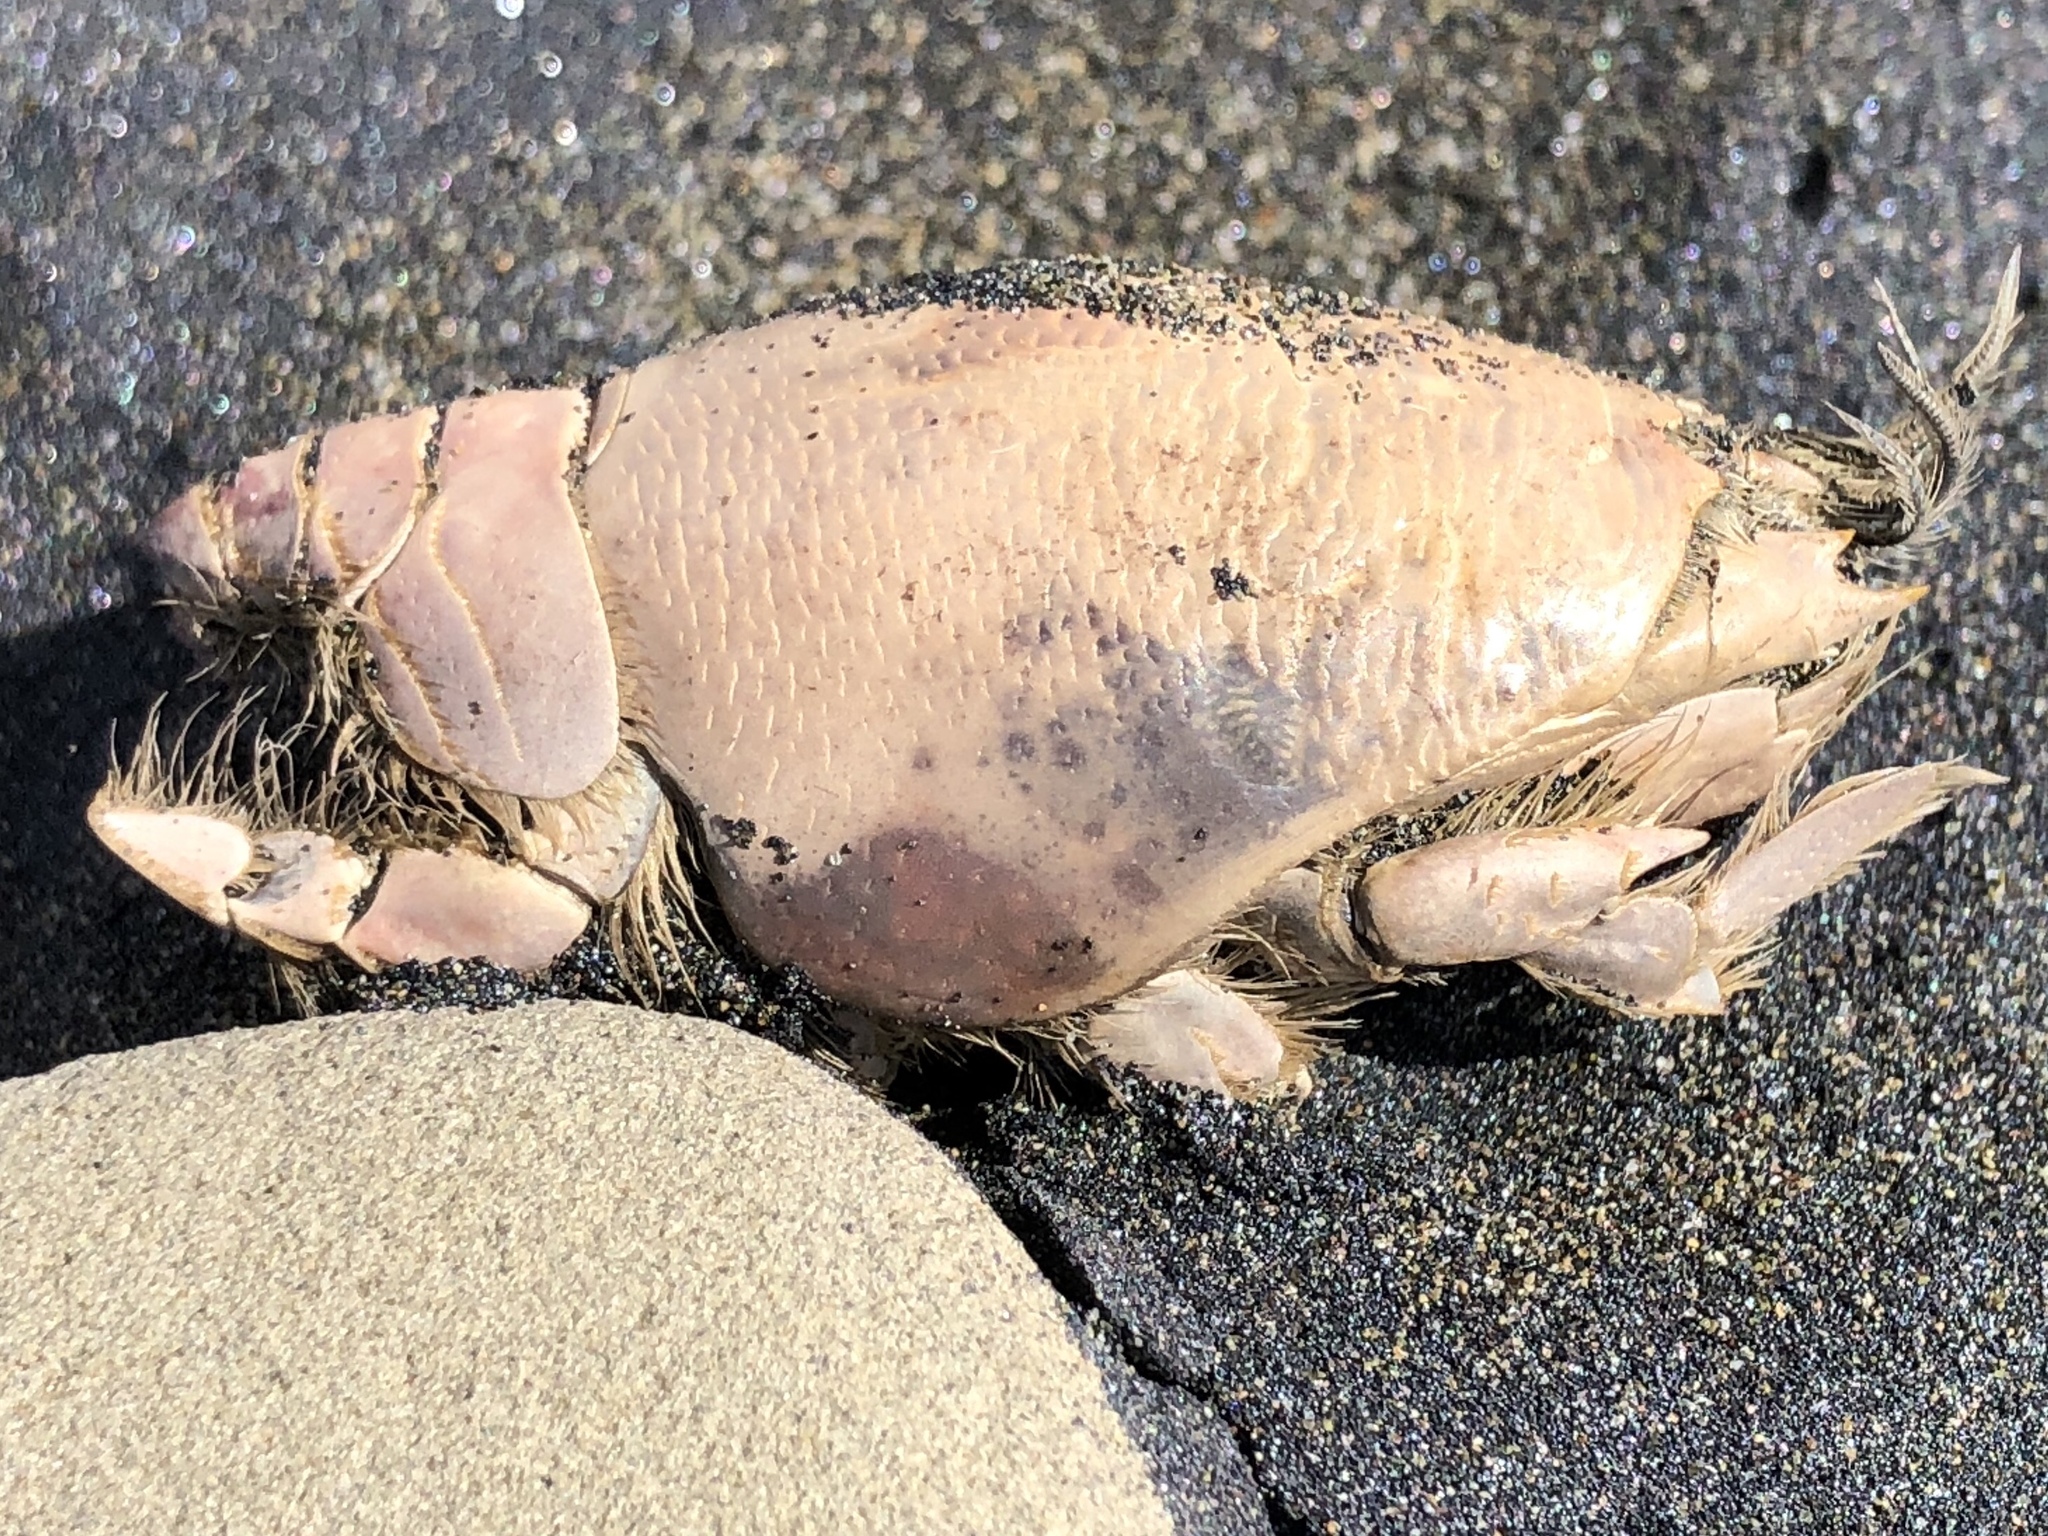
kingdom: Animalia
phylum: Arthropoda
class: Malacostraca
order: Decapoda
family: Hippidae
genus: Emerita
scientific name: Emerita analoga
